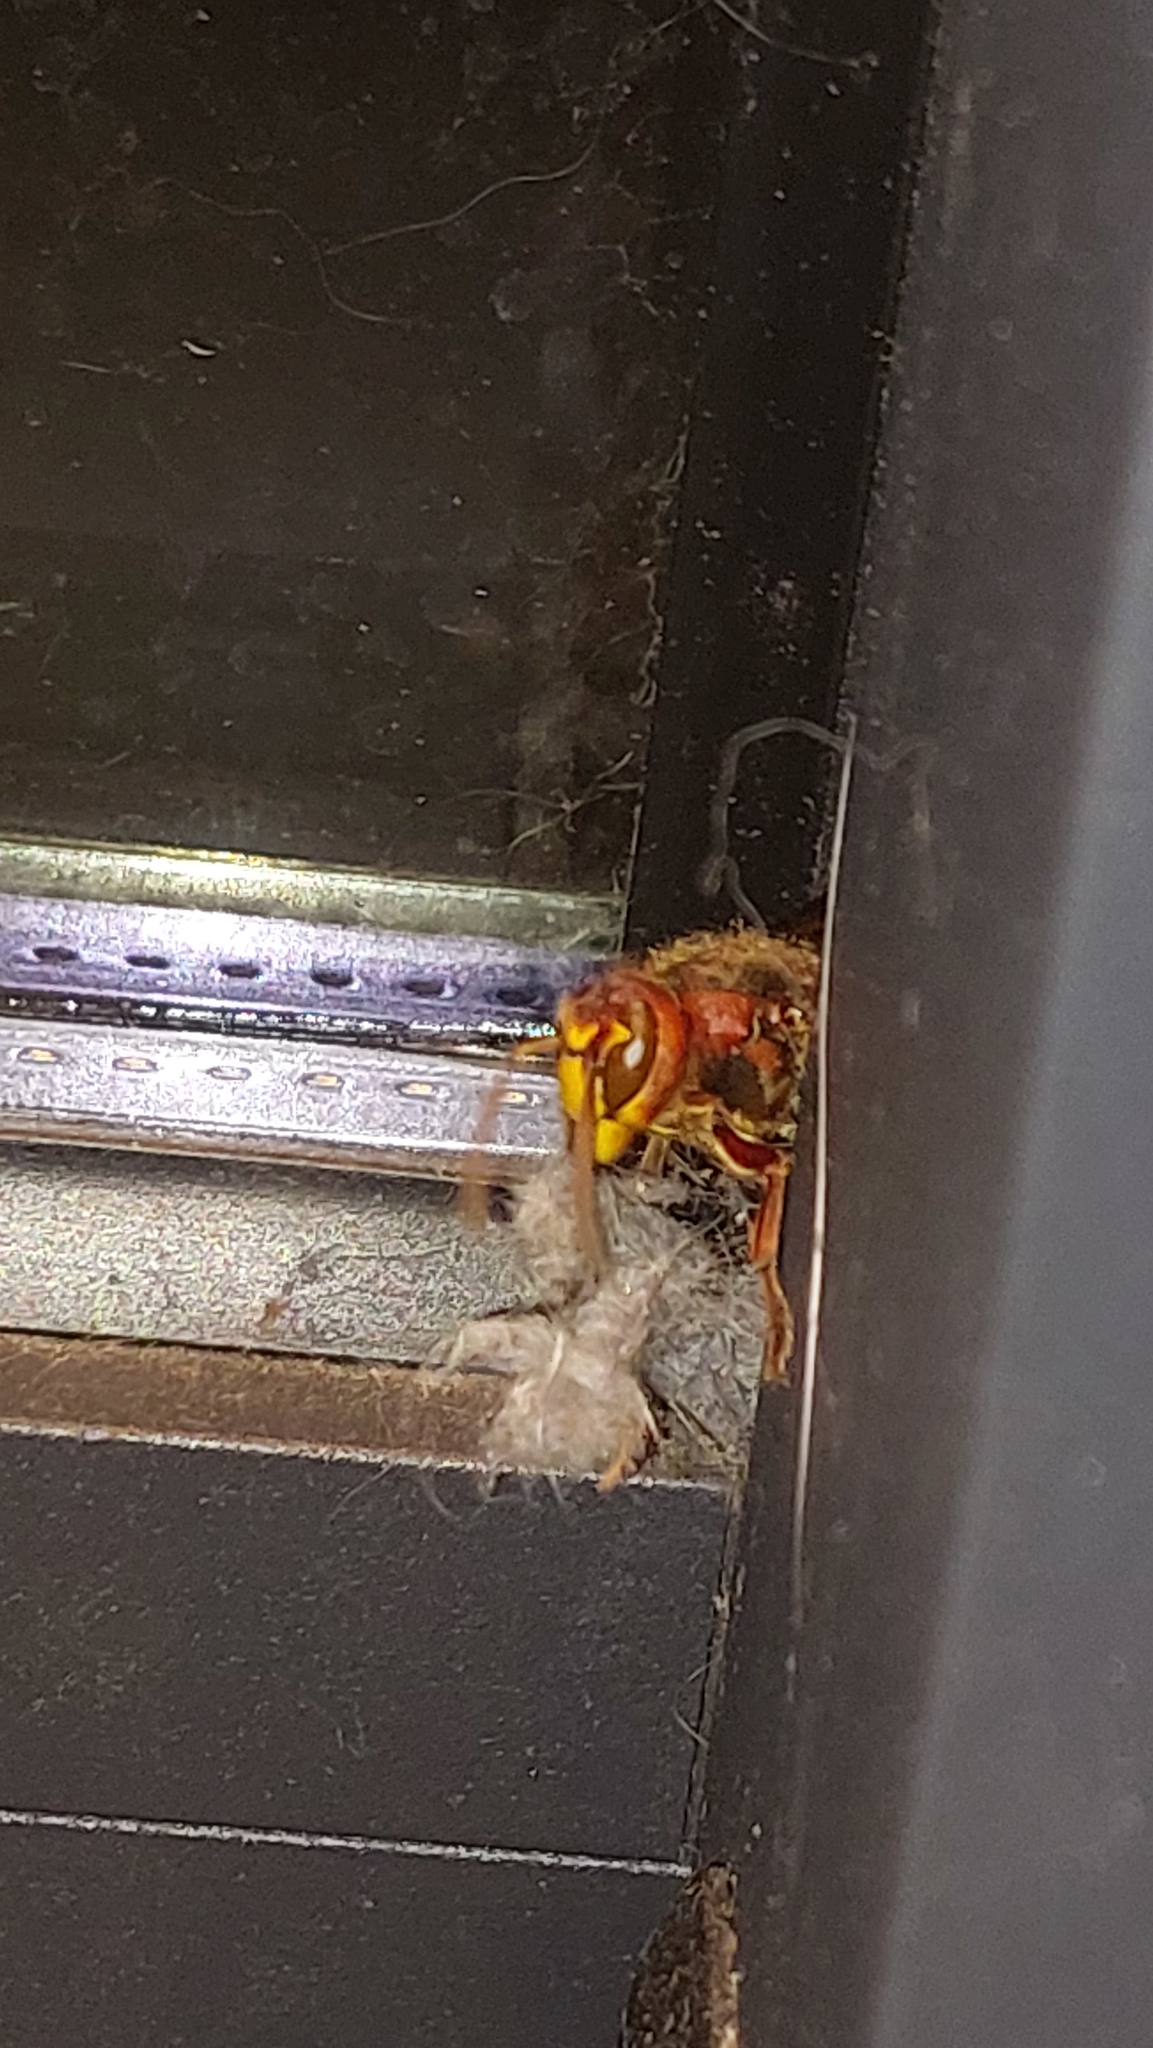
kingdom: Animalia
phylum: Arthropoda
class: Insecta
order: Hymenoptera
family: Vespidae
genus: Vespa
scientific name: Vespa crabro
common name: Hornet
